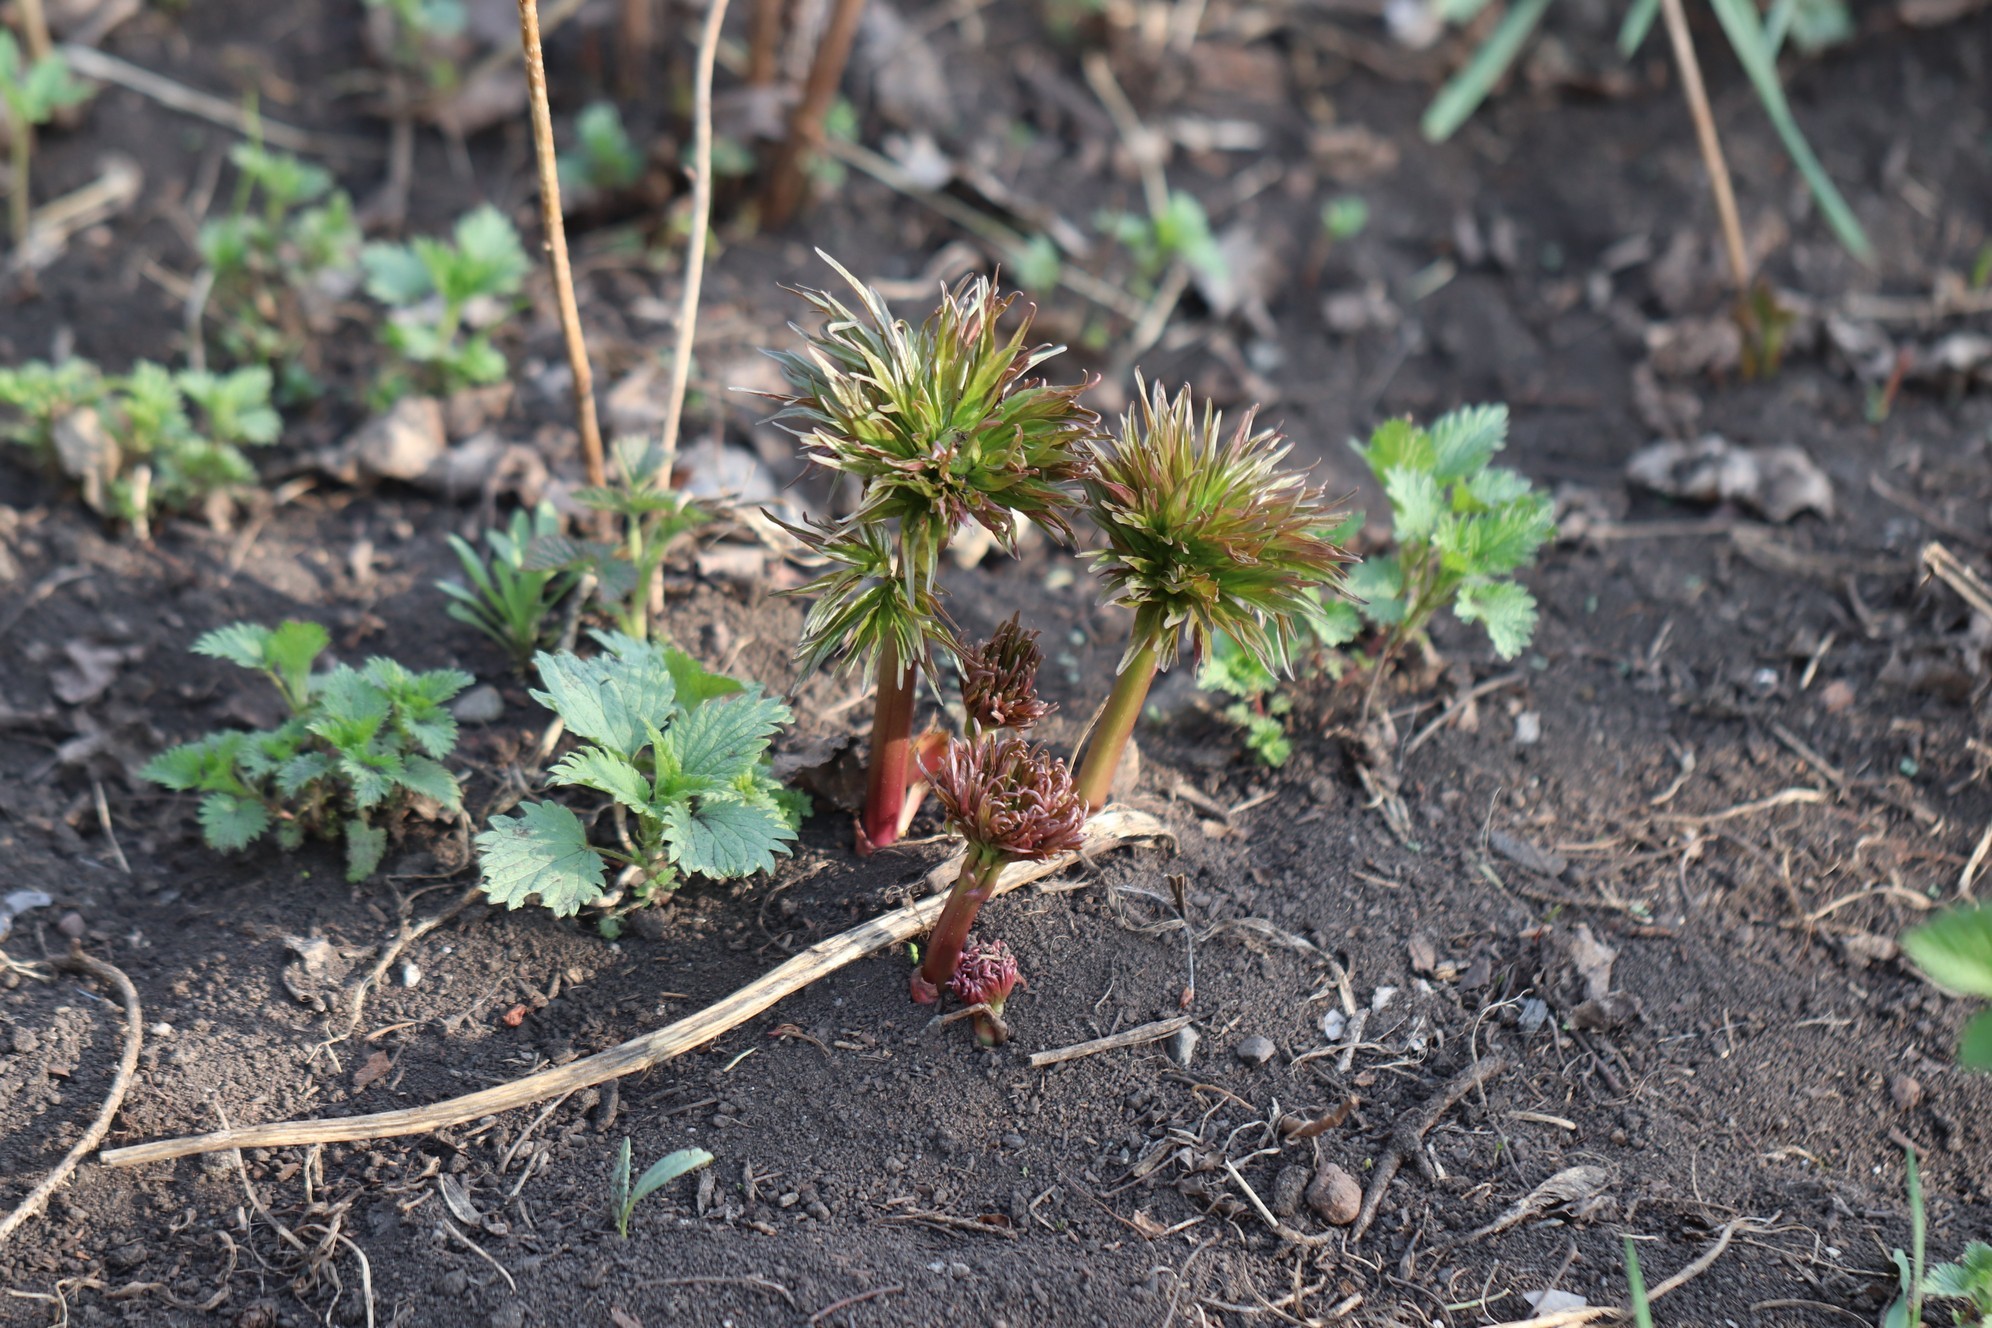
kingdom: Plantae
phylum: Tracheophyta
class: Magnoliopsida
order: Saxifragales
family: Paeoniaceae
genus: Paeonia
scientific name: Paeonia anomala
